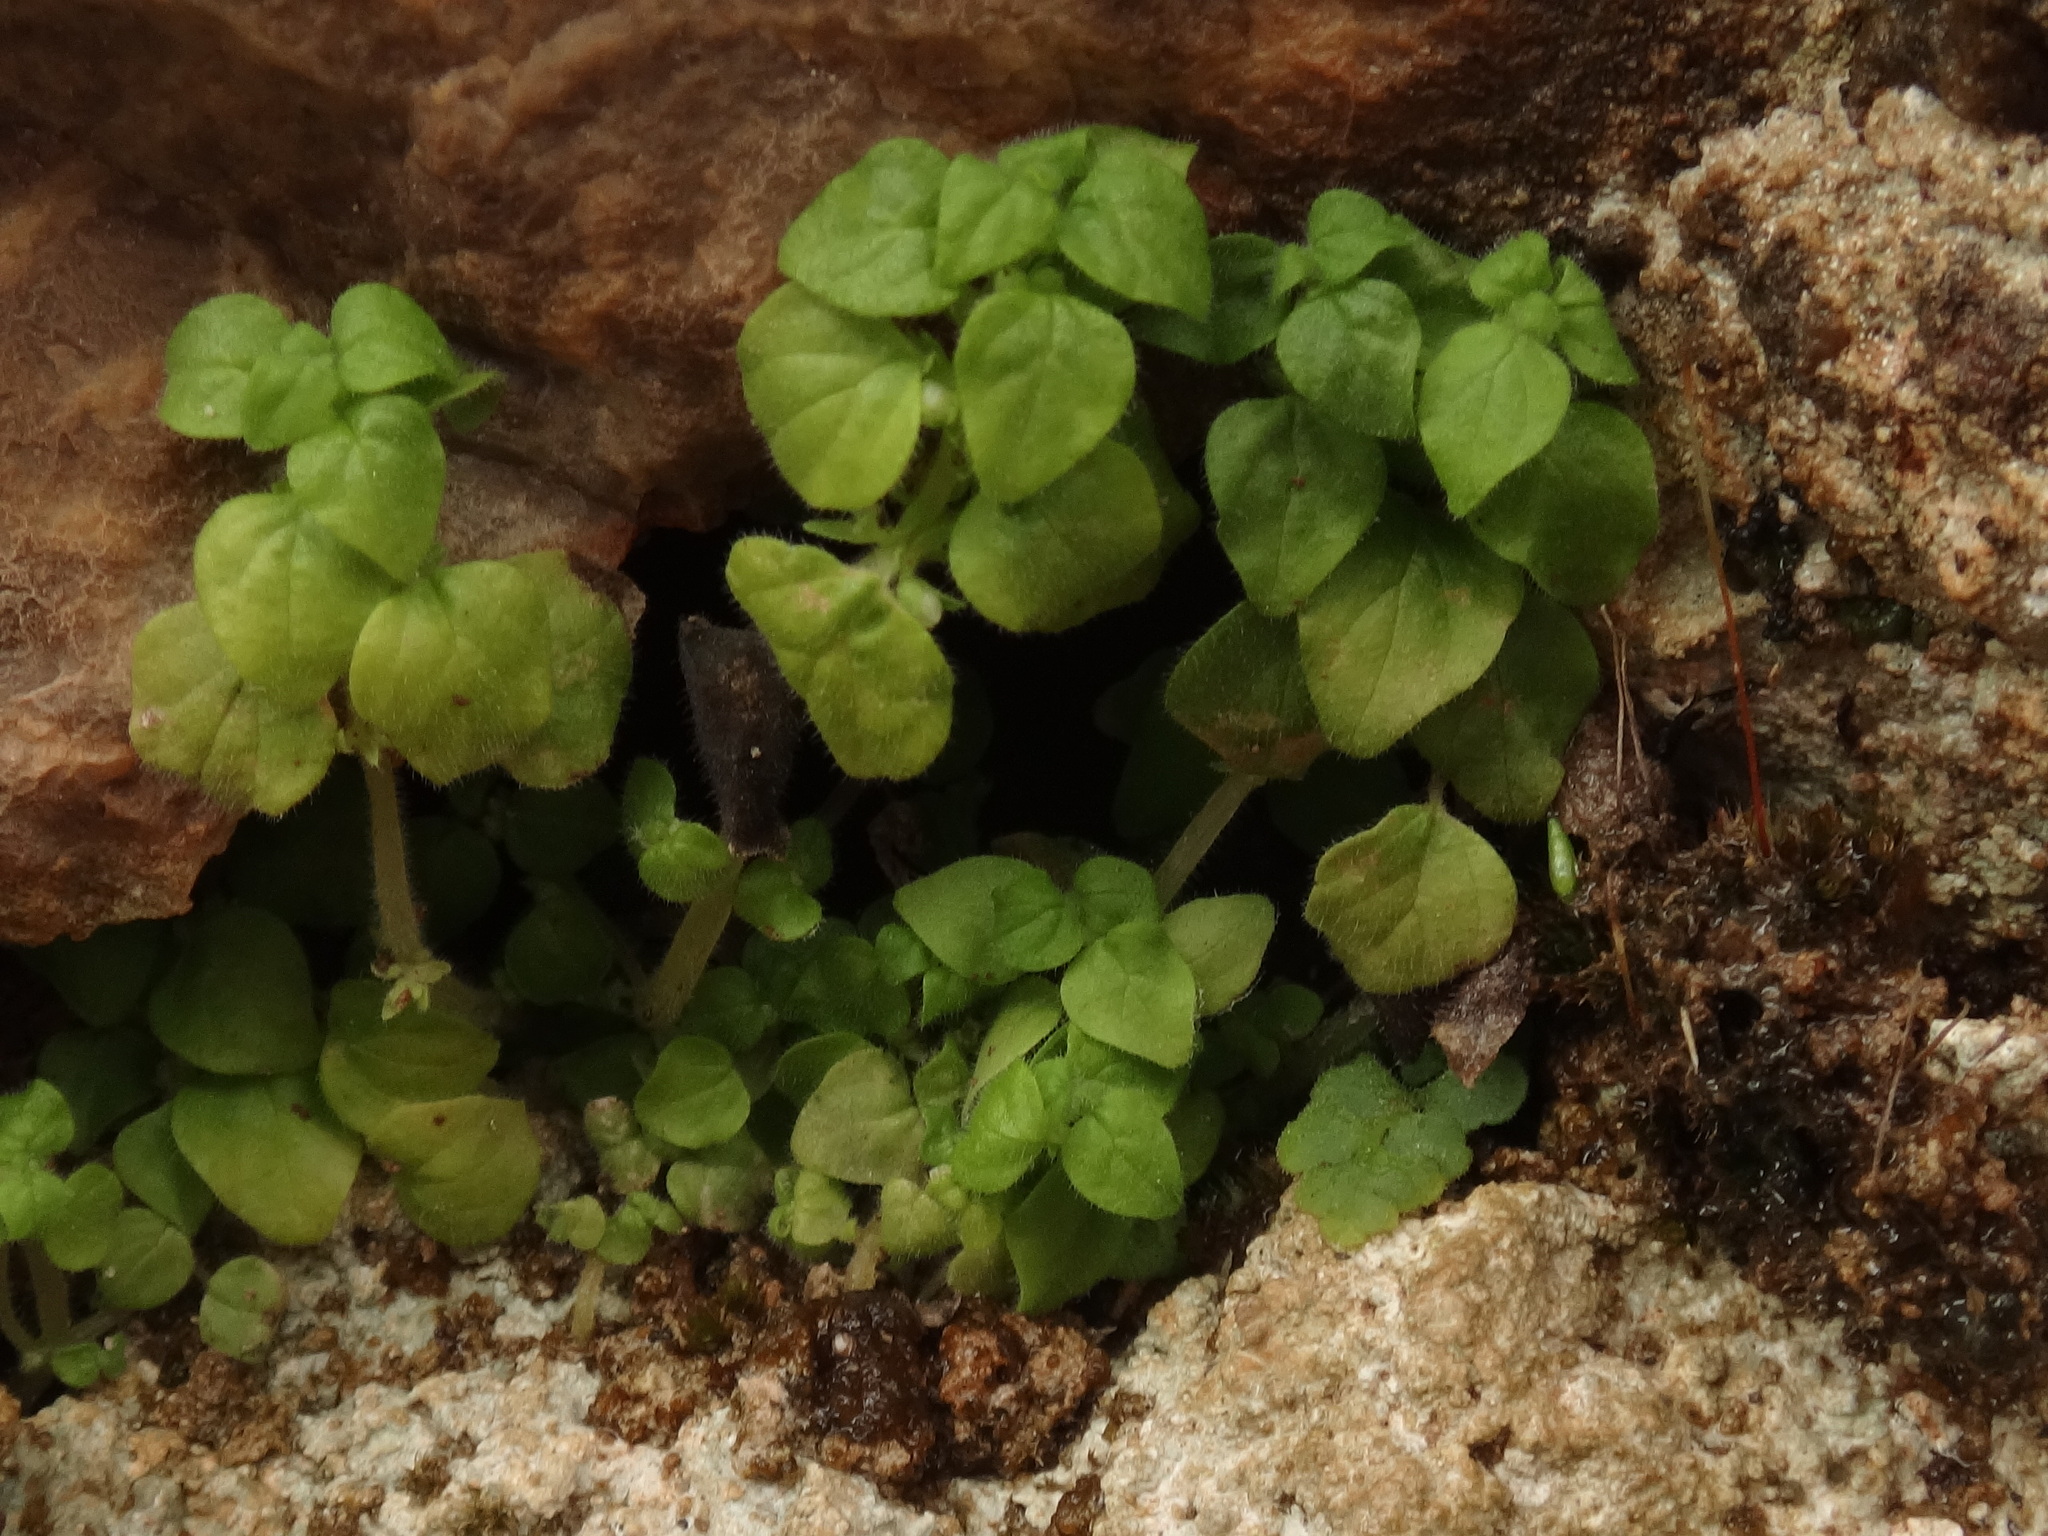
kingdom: Plantae
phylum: Tracheophyta
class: Magnoliopsida
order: Rosales
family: Urticaceae
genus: Parietaria
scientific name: Parietaria lusitanica
